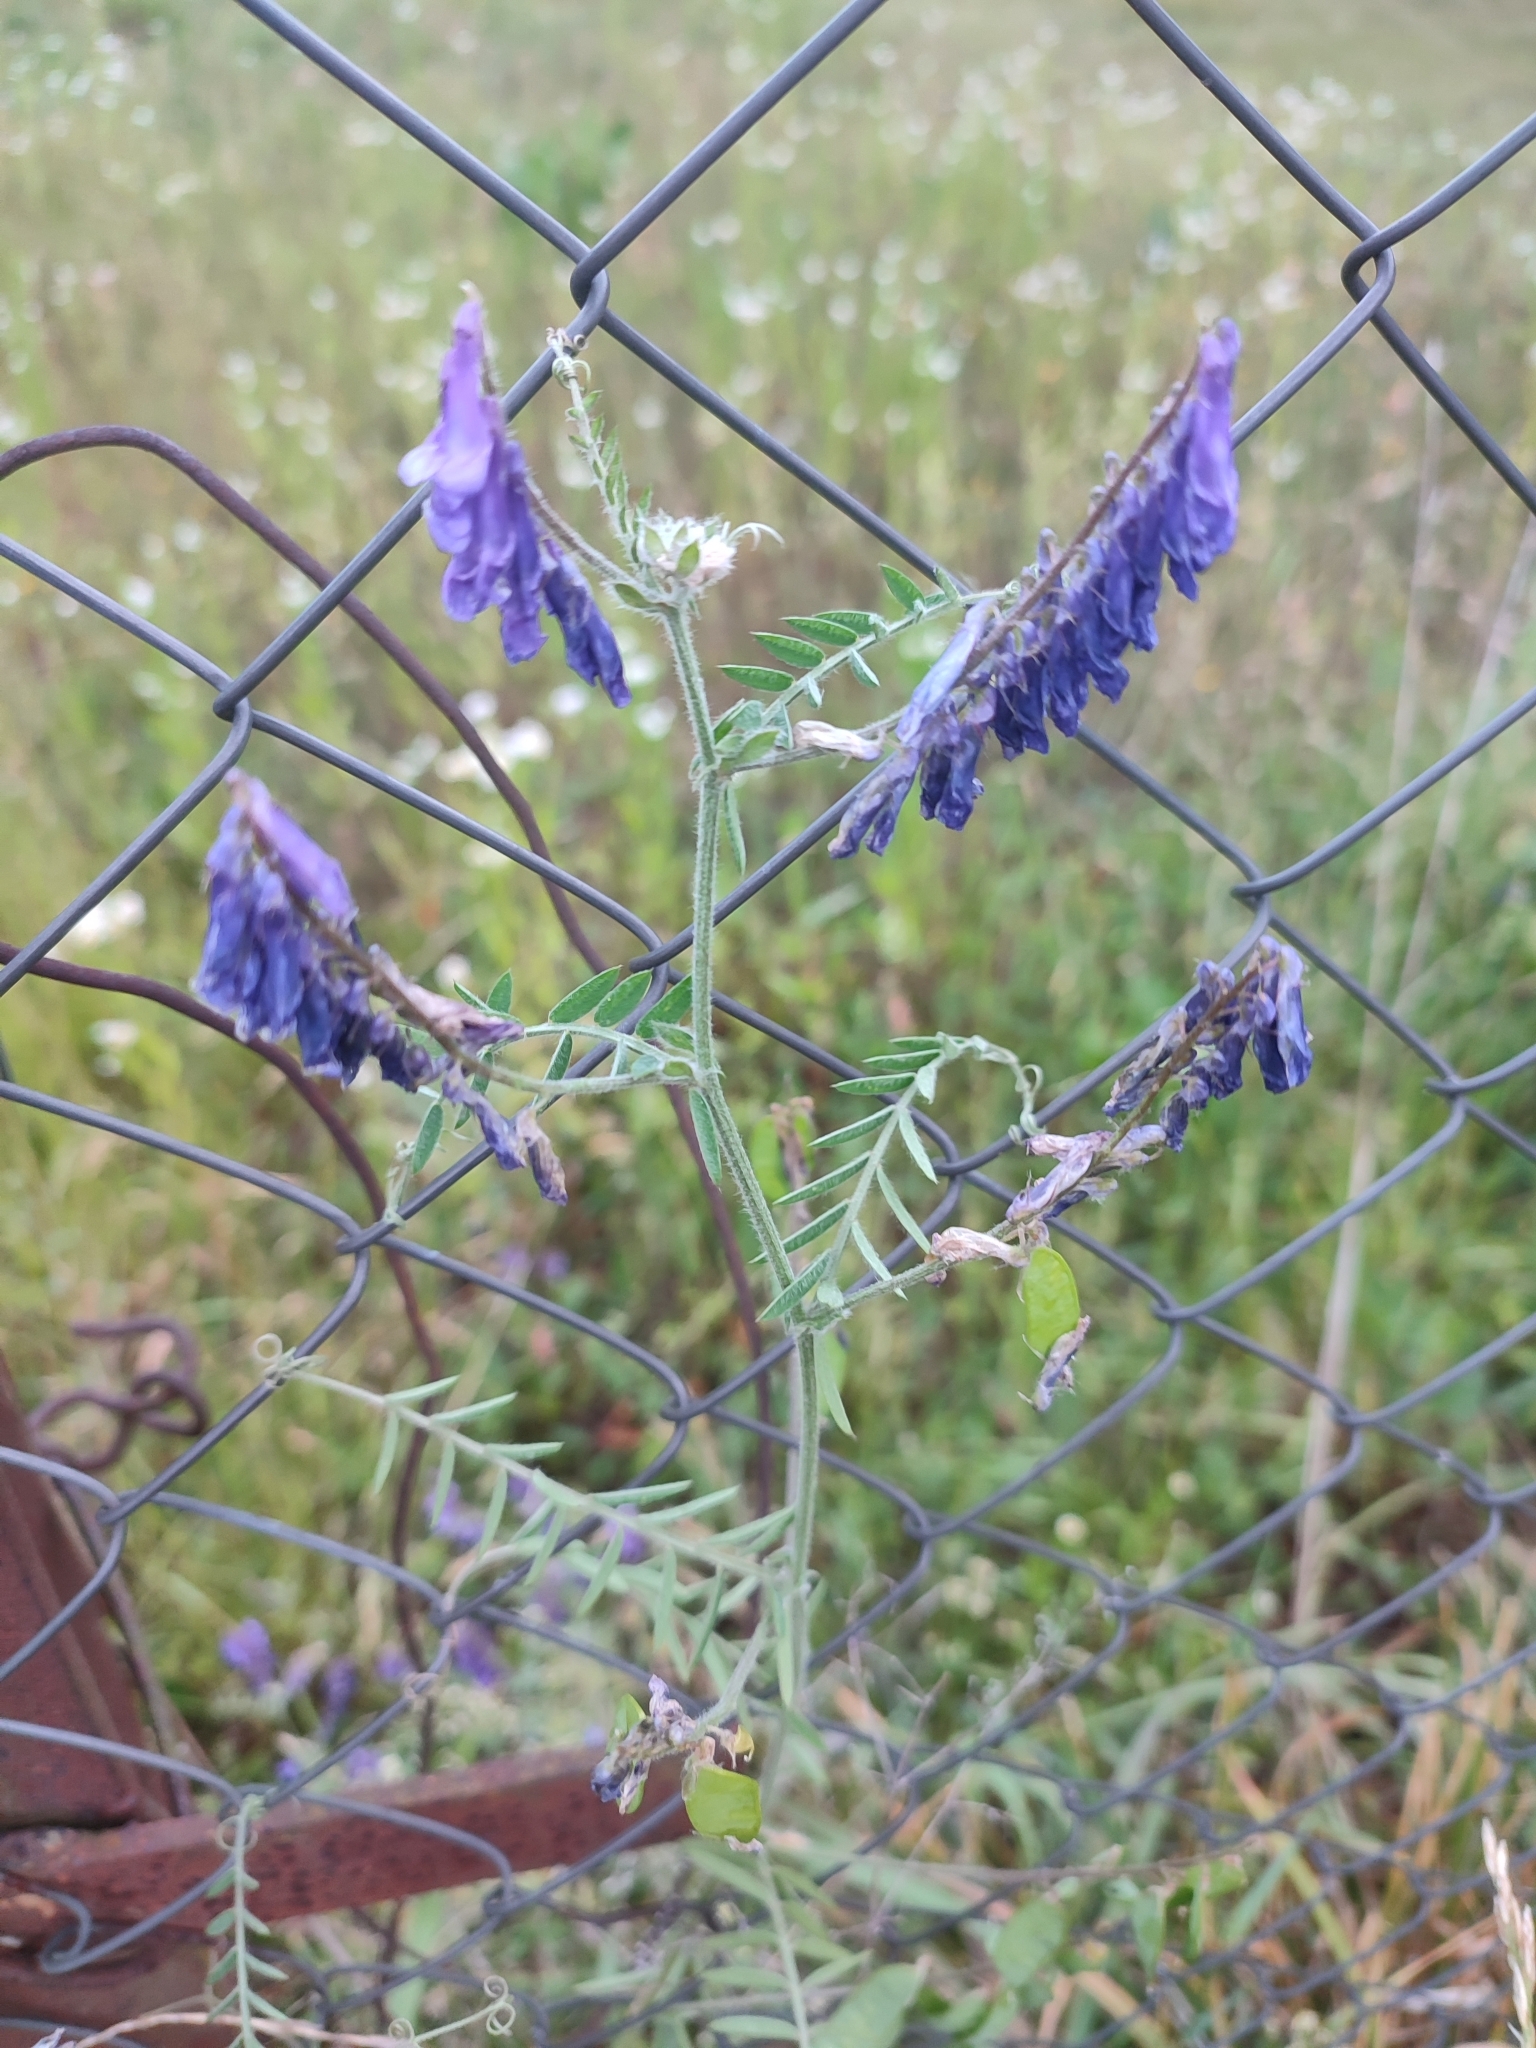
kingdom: Plantae
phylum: Tracheophyta
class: Magnoliopsida
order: Fabales
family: Fabaceae
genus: Vicia
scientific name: Vicia villosa
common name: Fodder vetch
